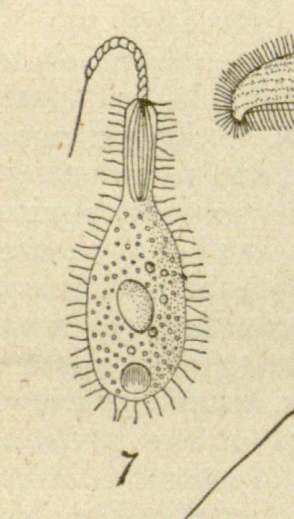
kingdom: Chromista
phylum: Ciliophora
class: Gymnostomatea
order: Haptorida
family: Enchelyidae
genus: Ileonema
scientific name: Ileonema
